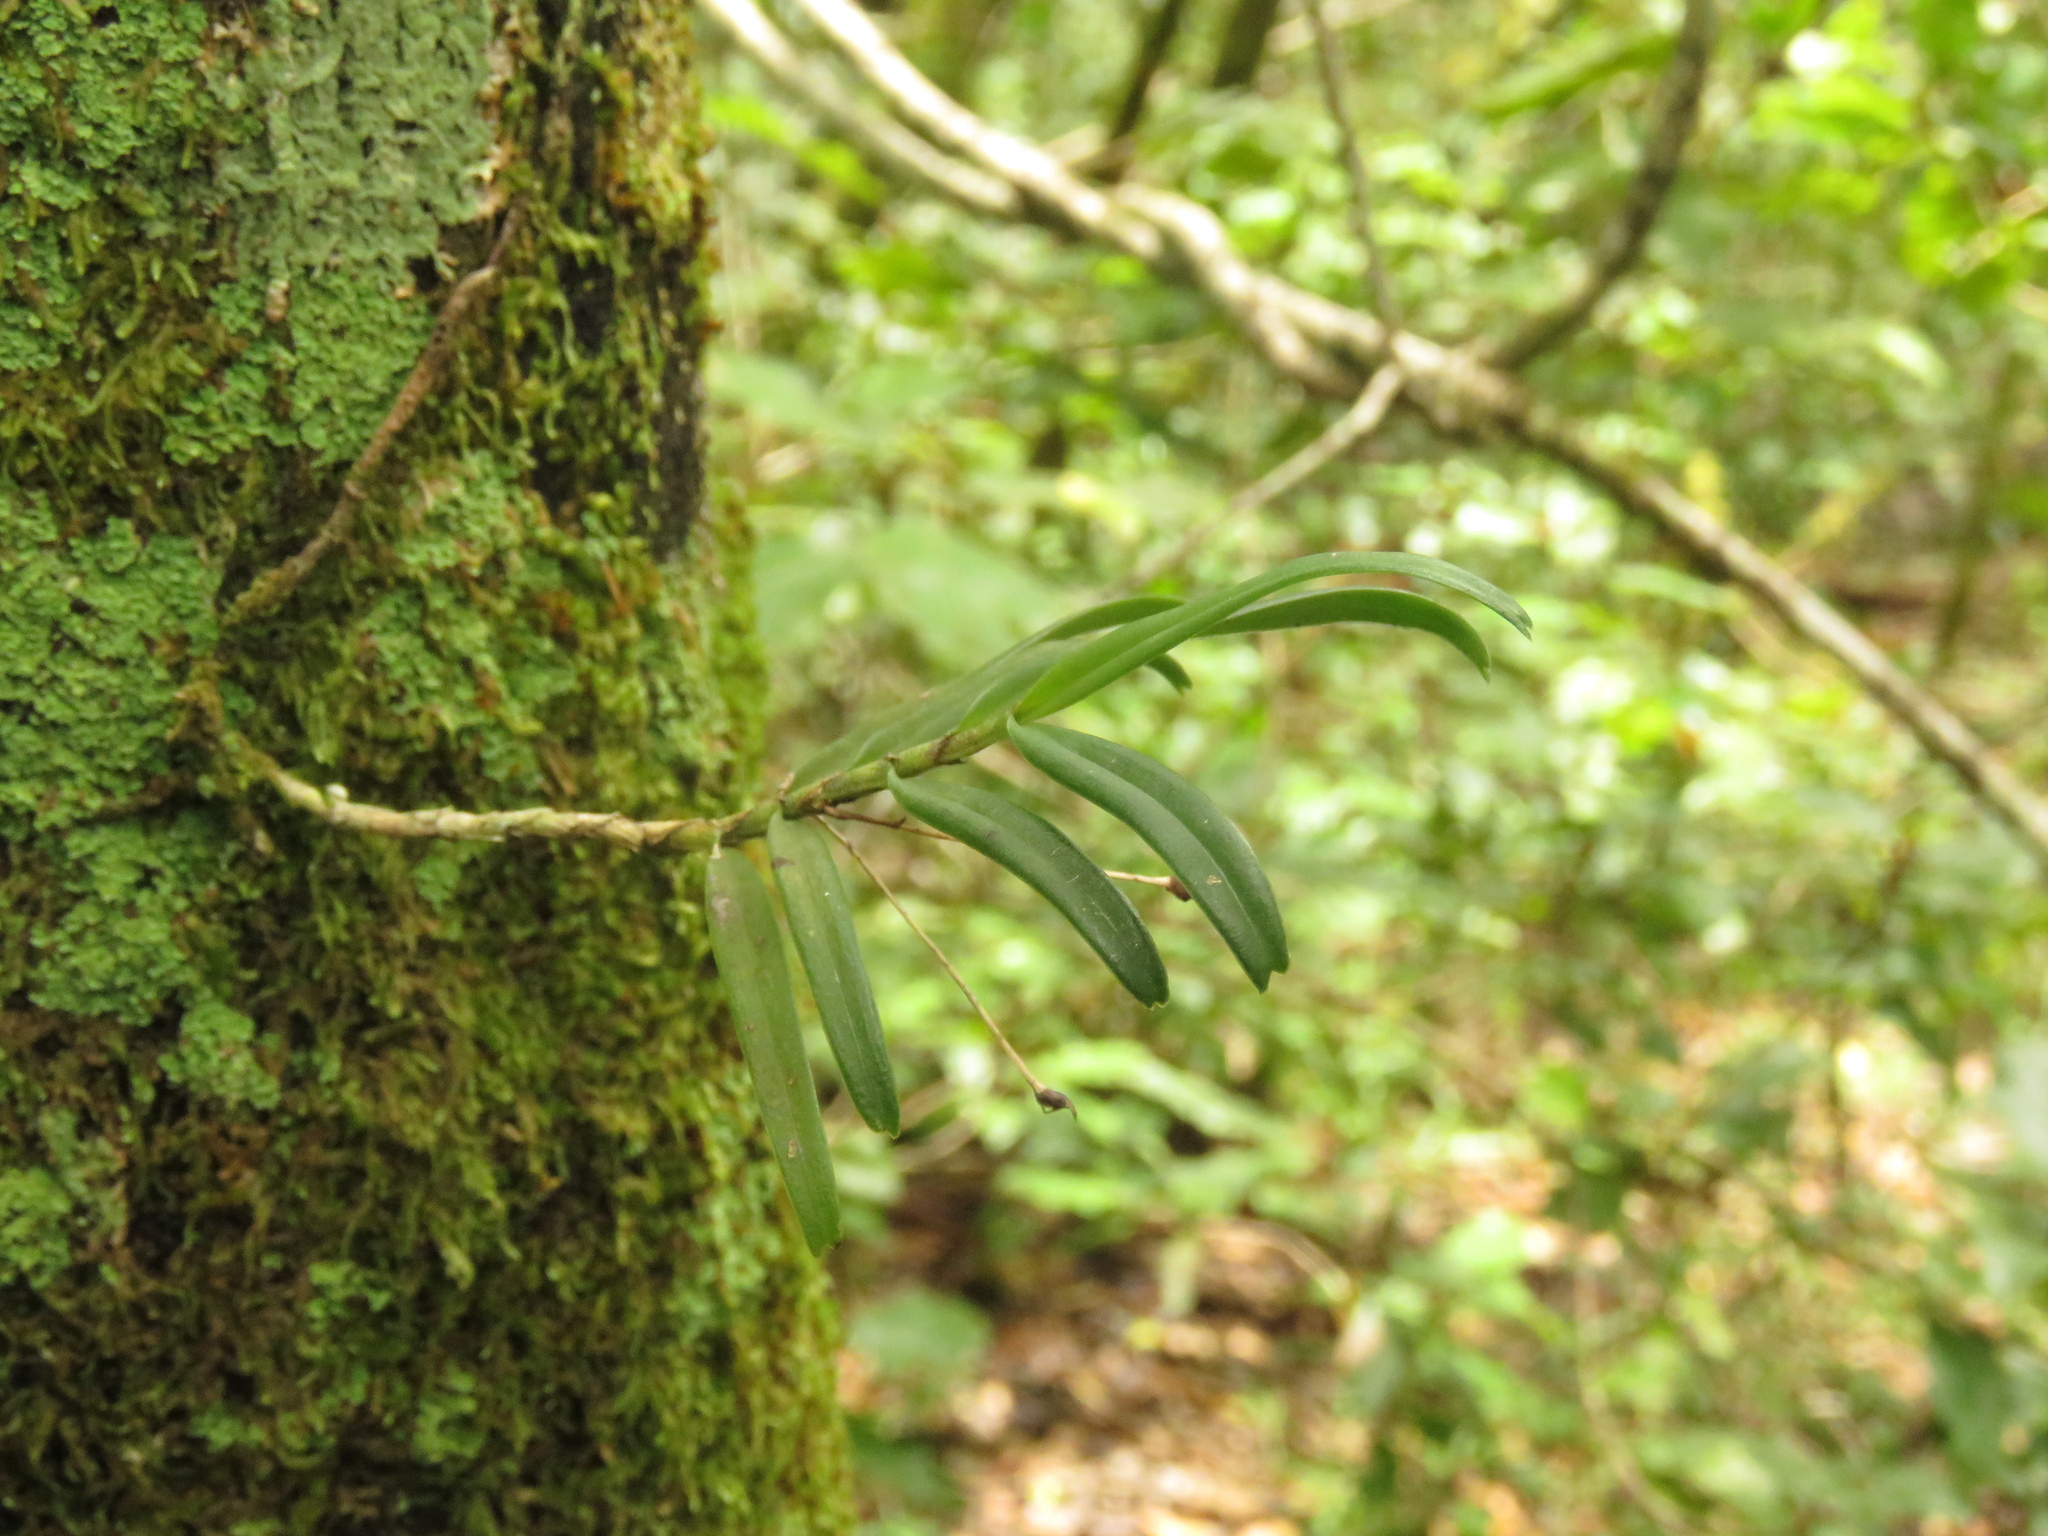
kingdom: Plantae
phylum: Tracheophyta
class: Liliopsida
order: Asparagales
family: Orchidaceae
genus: Angraecum
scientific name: Angraecum conchiferum
